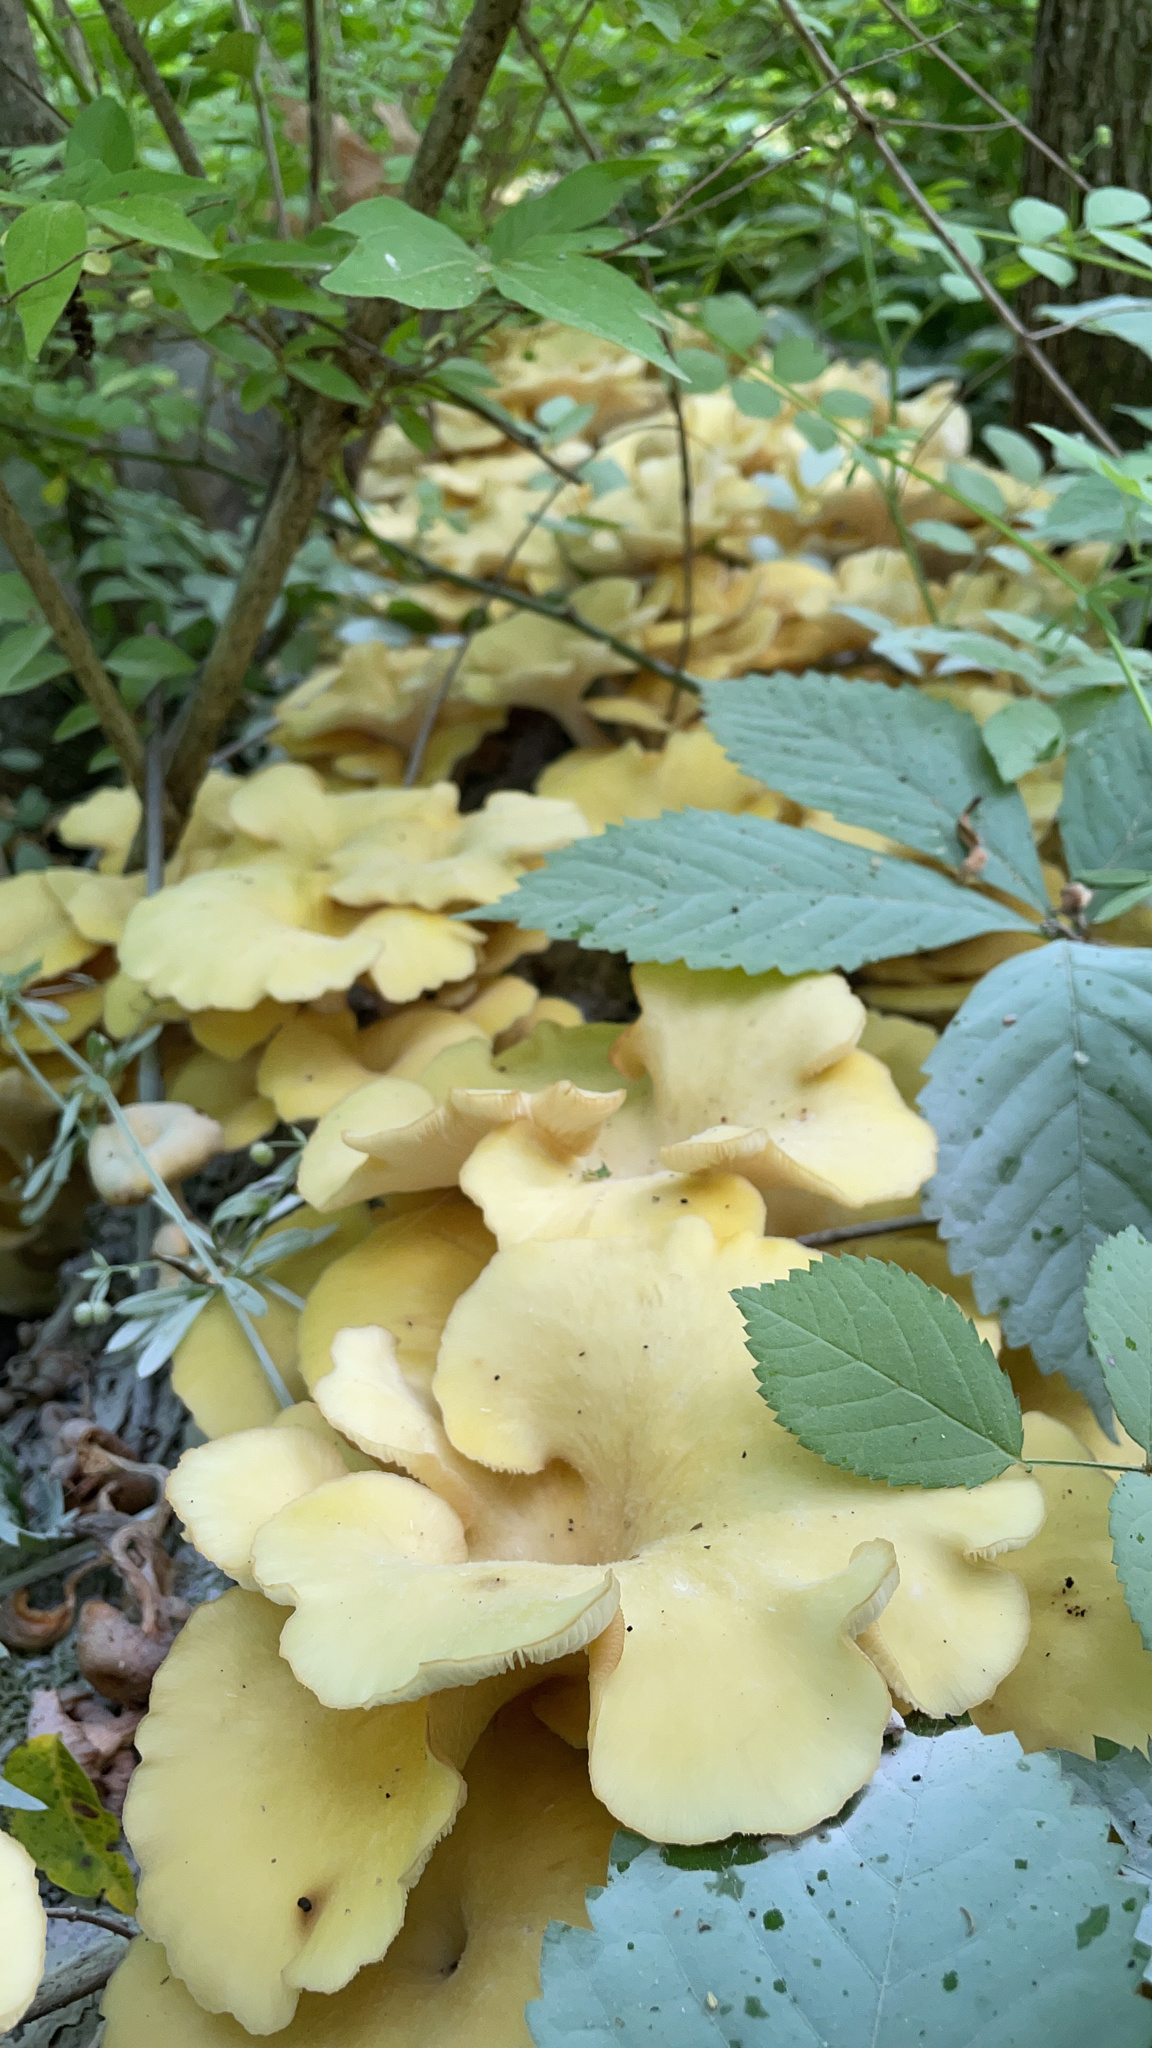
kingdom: Fungi
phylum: Basidiomycota
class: Agaricomycetes
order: Agaricales
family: Pleurotaceae
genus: Pleurotus
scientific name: Pleurotus citrinopileatus
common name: Golden oyster mushroom
